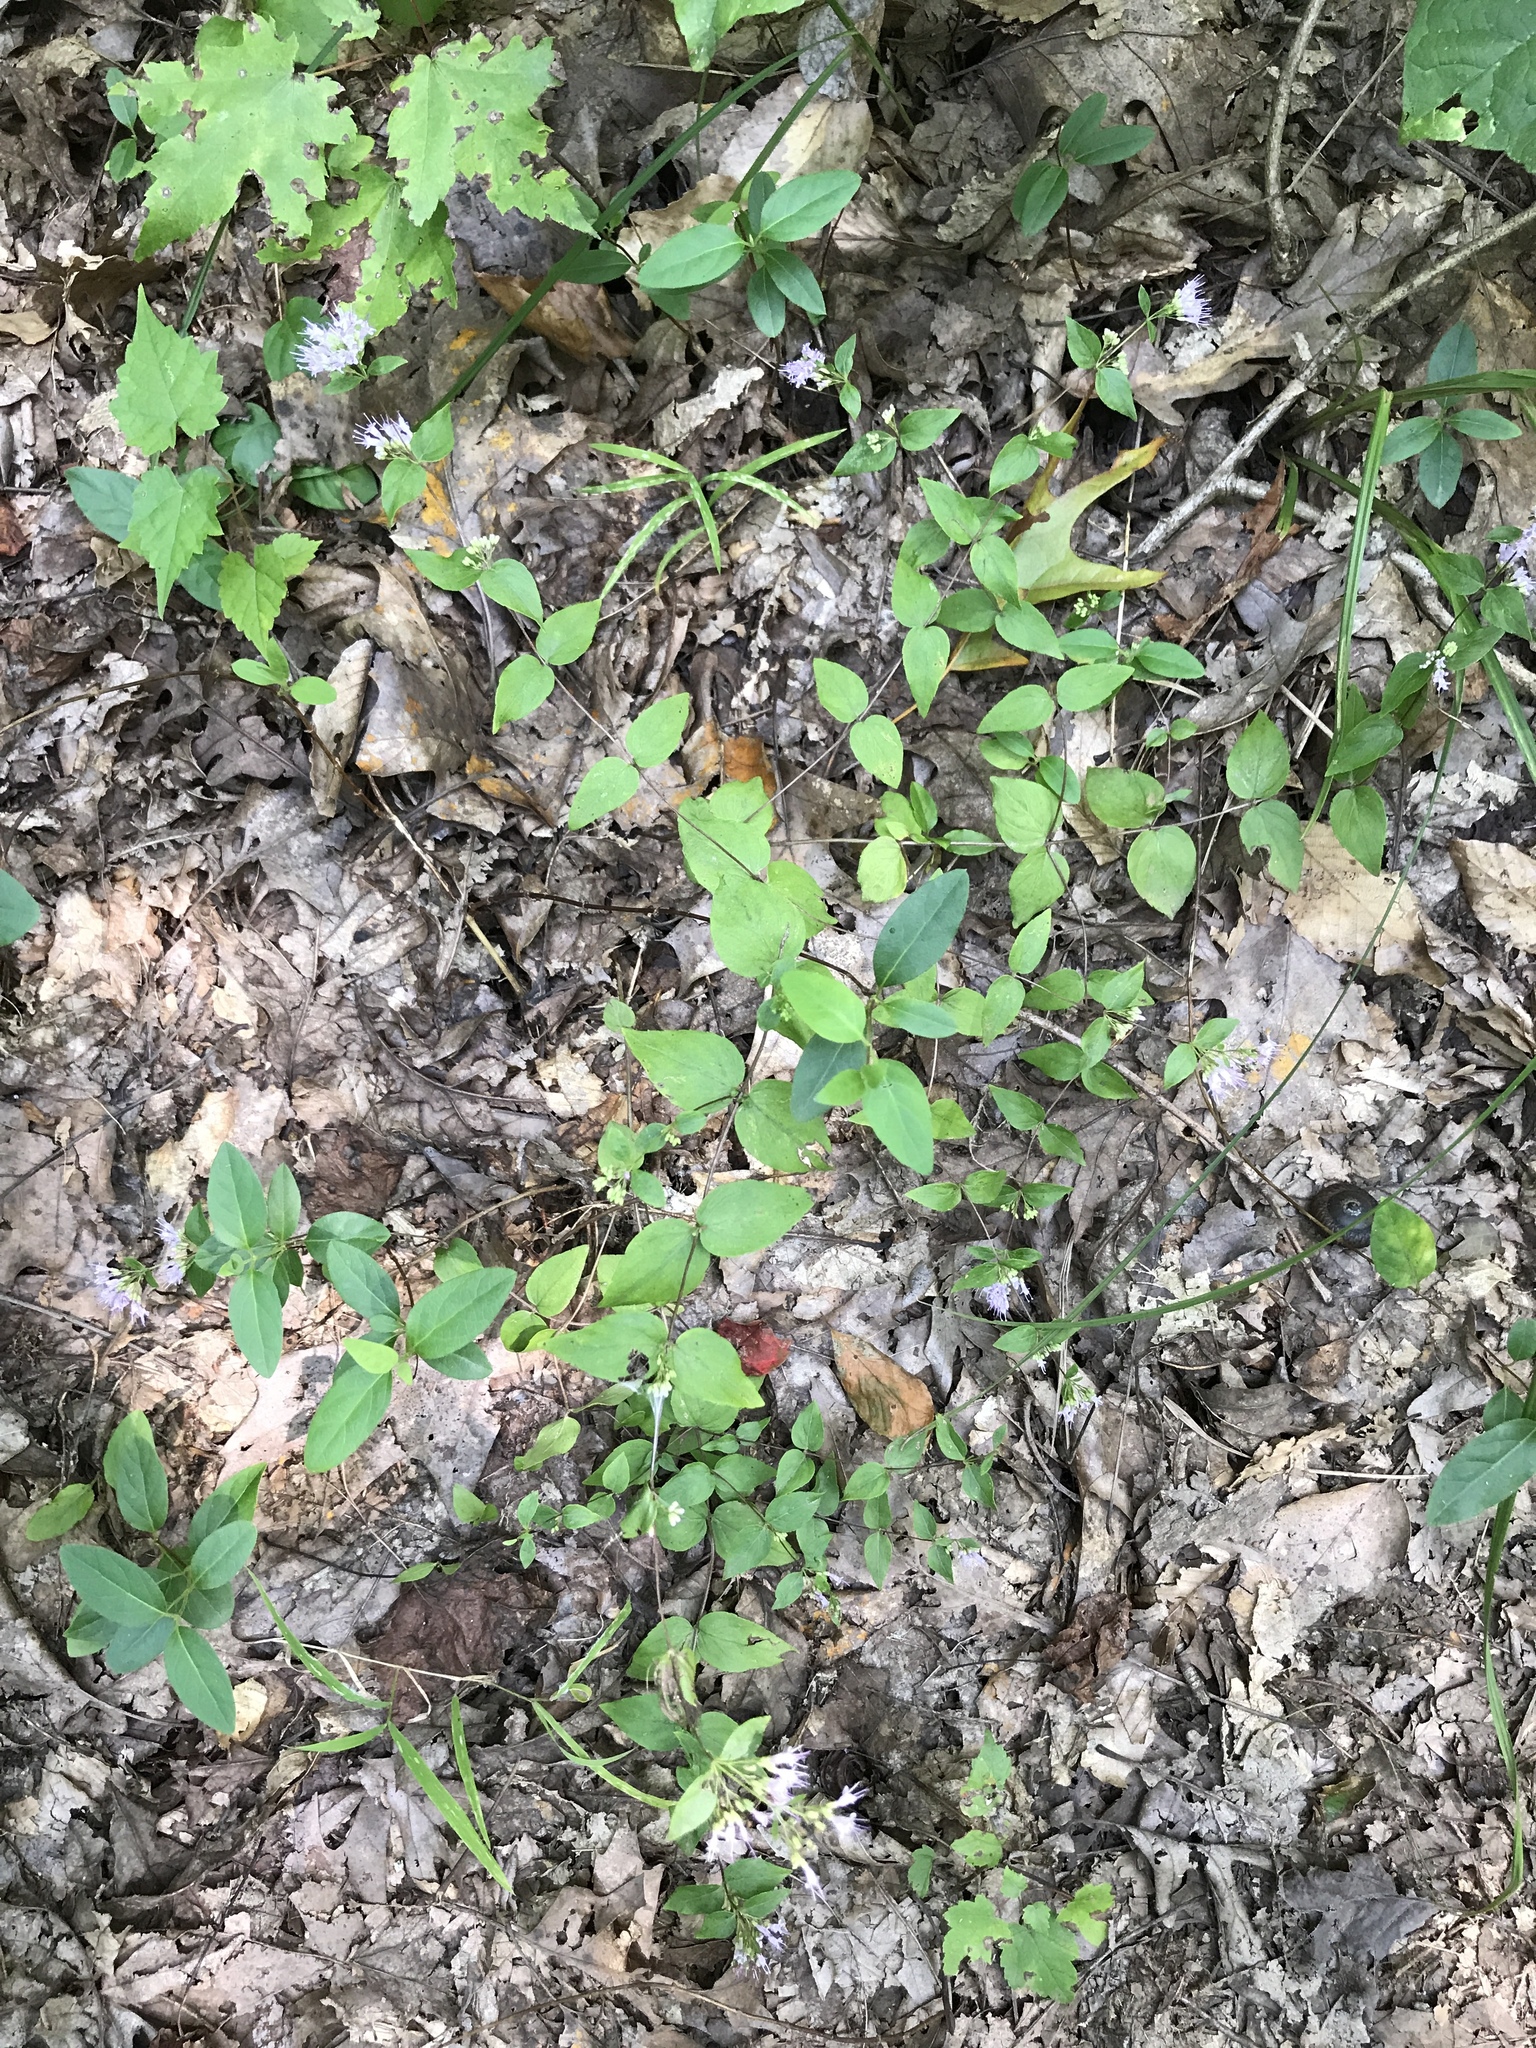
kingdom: Plantae
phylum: Tracheophyta
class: Magnoliopsida
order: Lamiales
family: Lamiaceae
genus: Cunila
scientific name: Cunila origanoides
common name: American dittany
